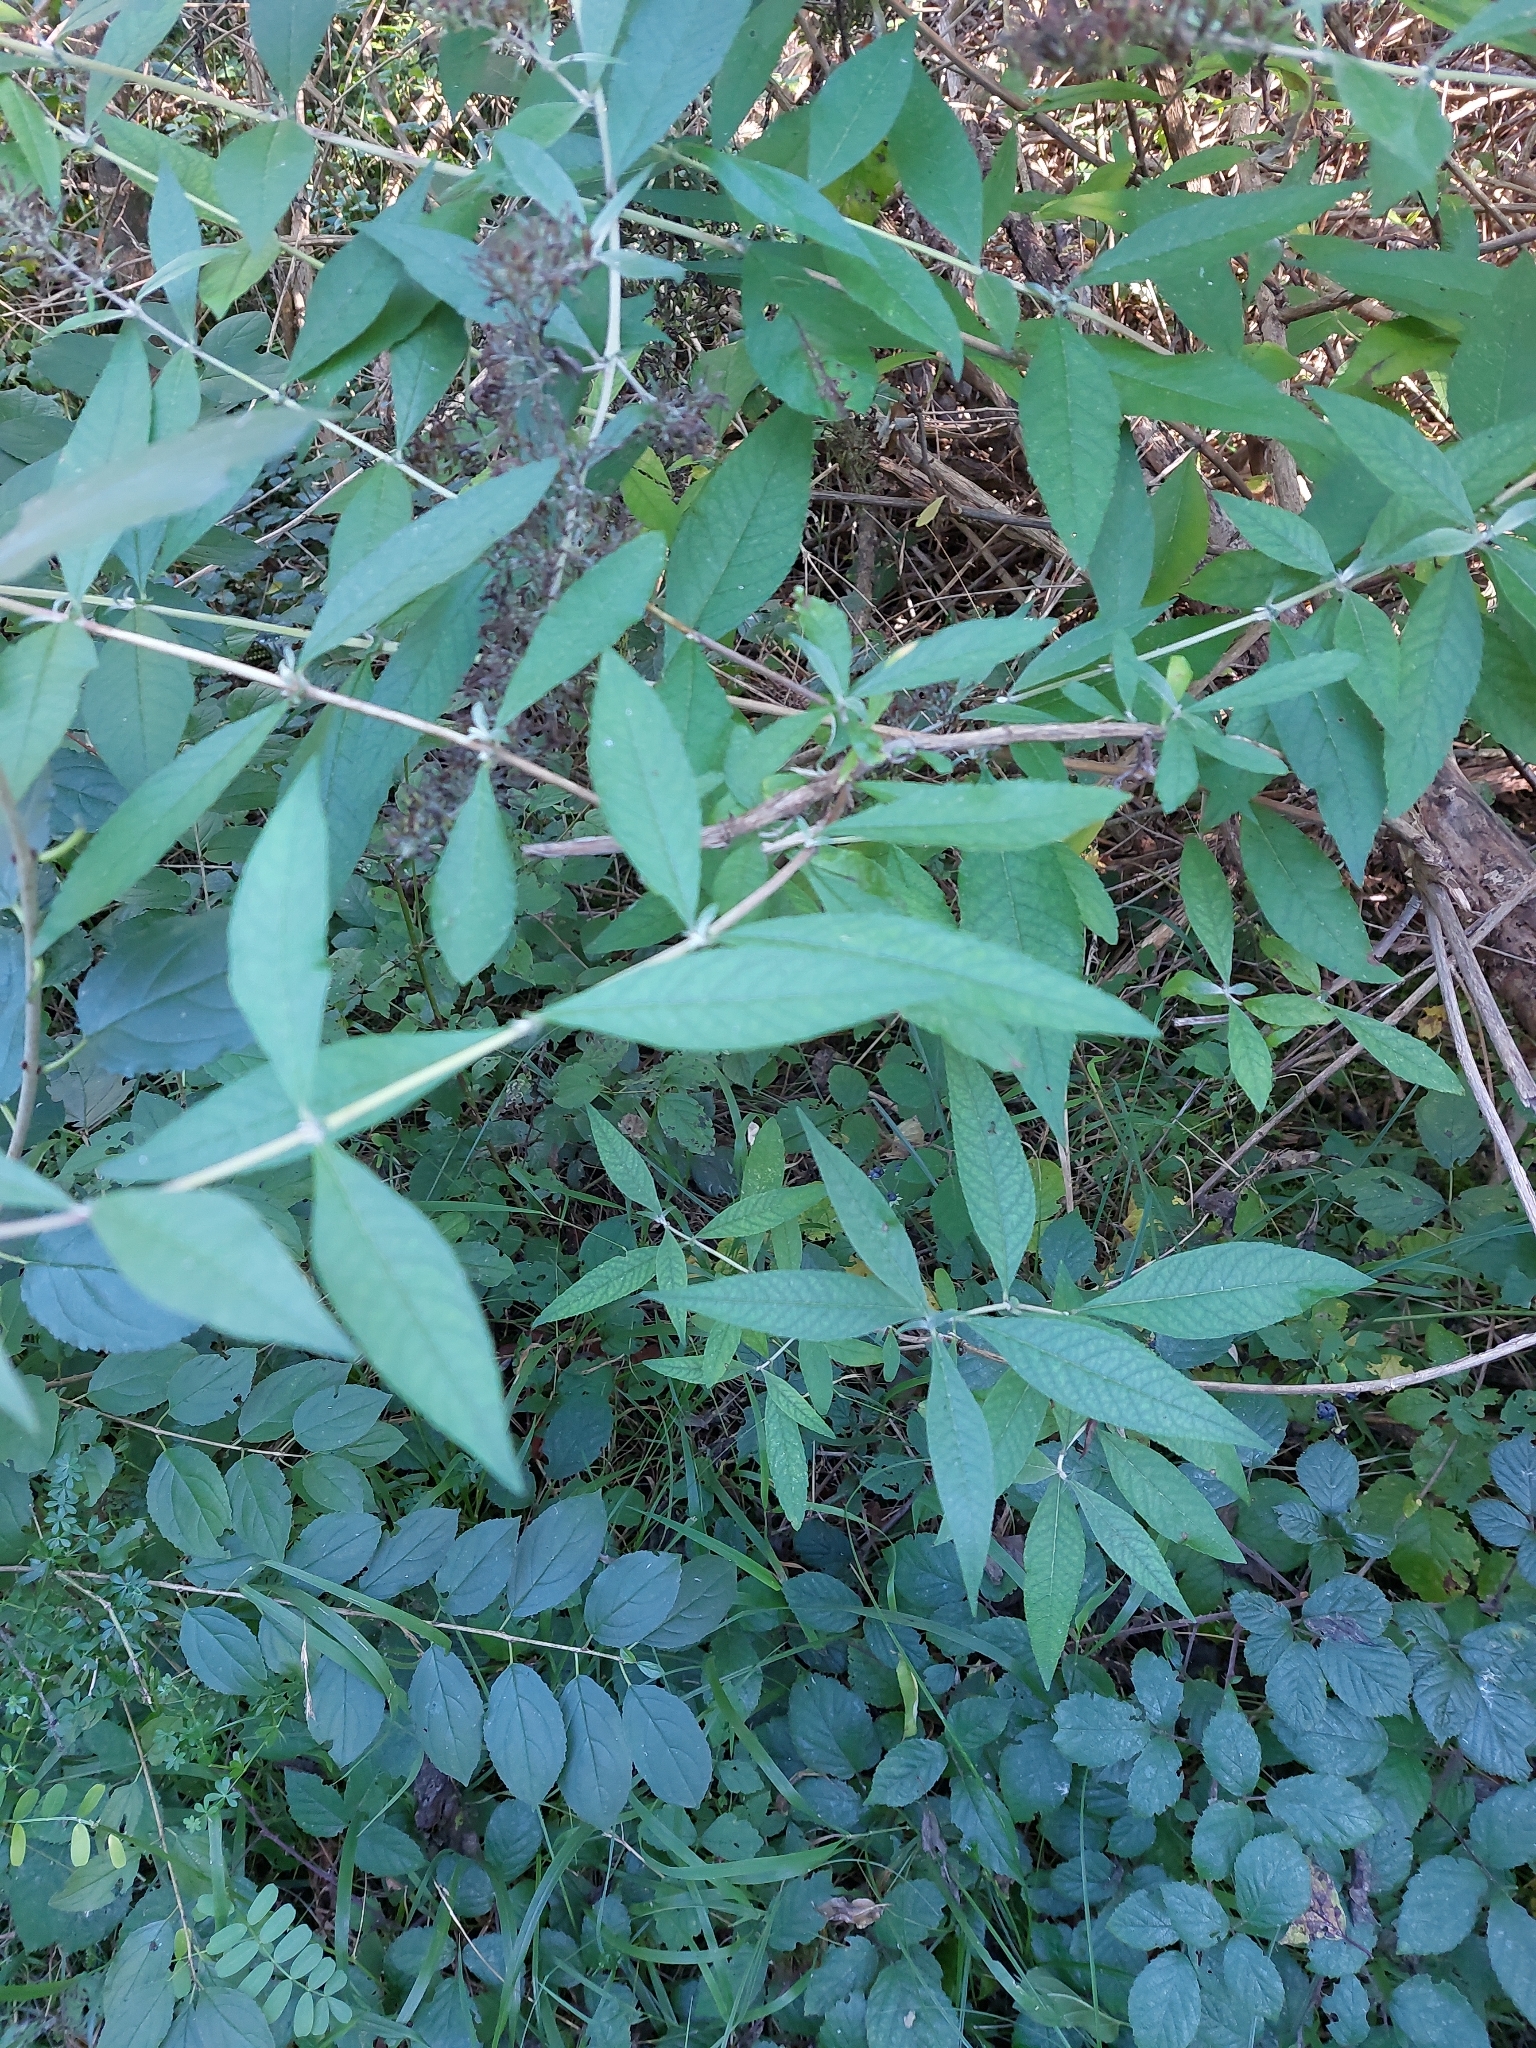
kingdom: Plantae
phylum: Tracheophyta
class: Magnoliopsida
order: Lamiales
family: Scrophulariaceae
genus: Buddleja
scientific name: Buddleja davidii
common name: Butterfly-bush
